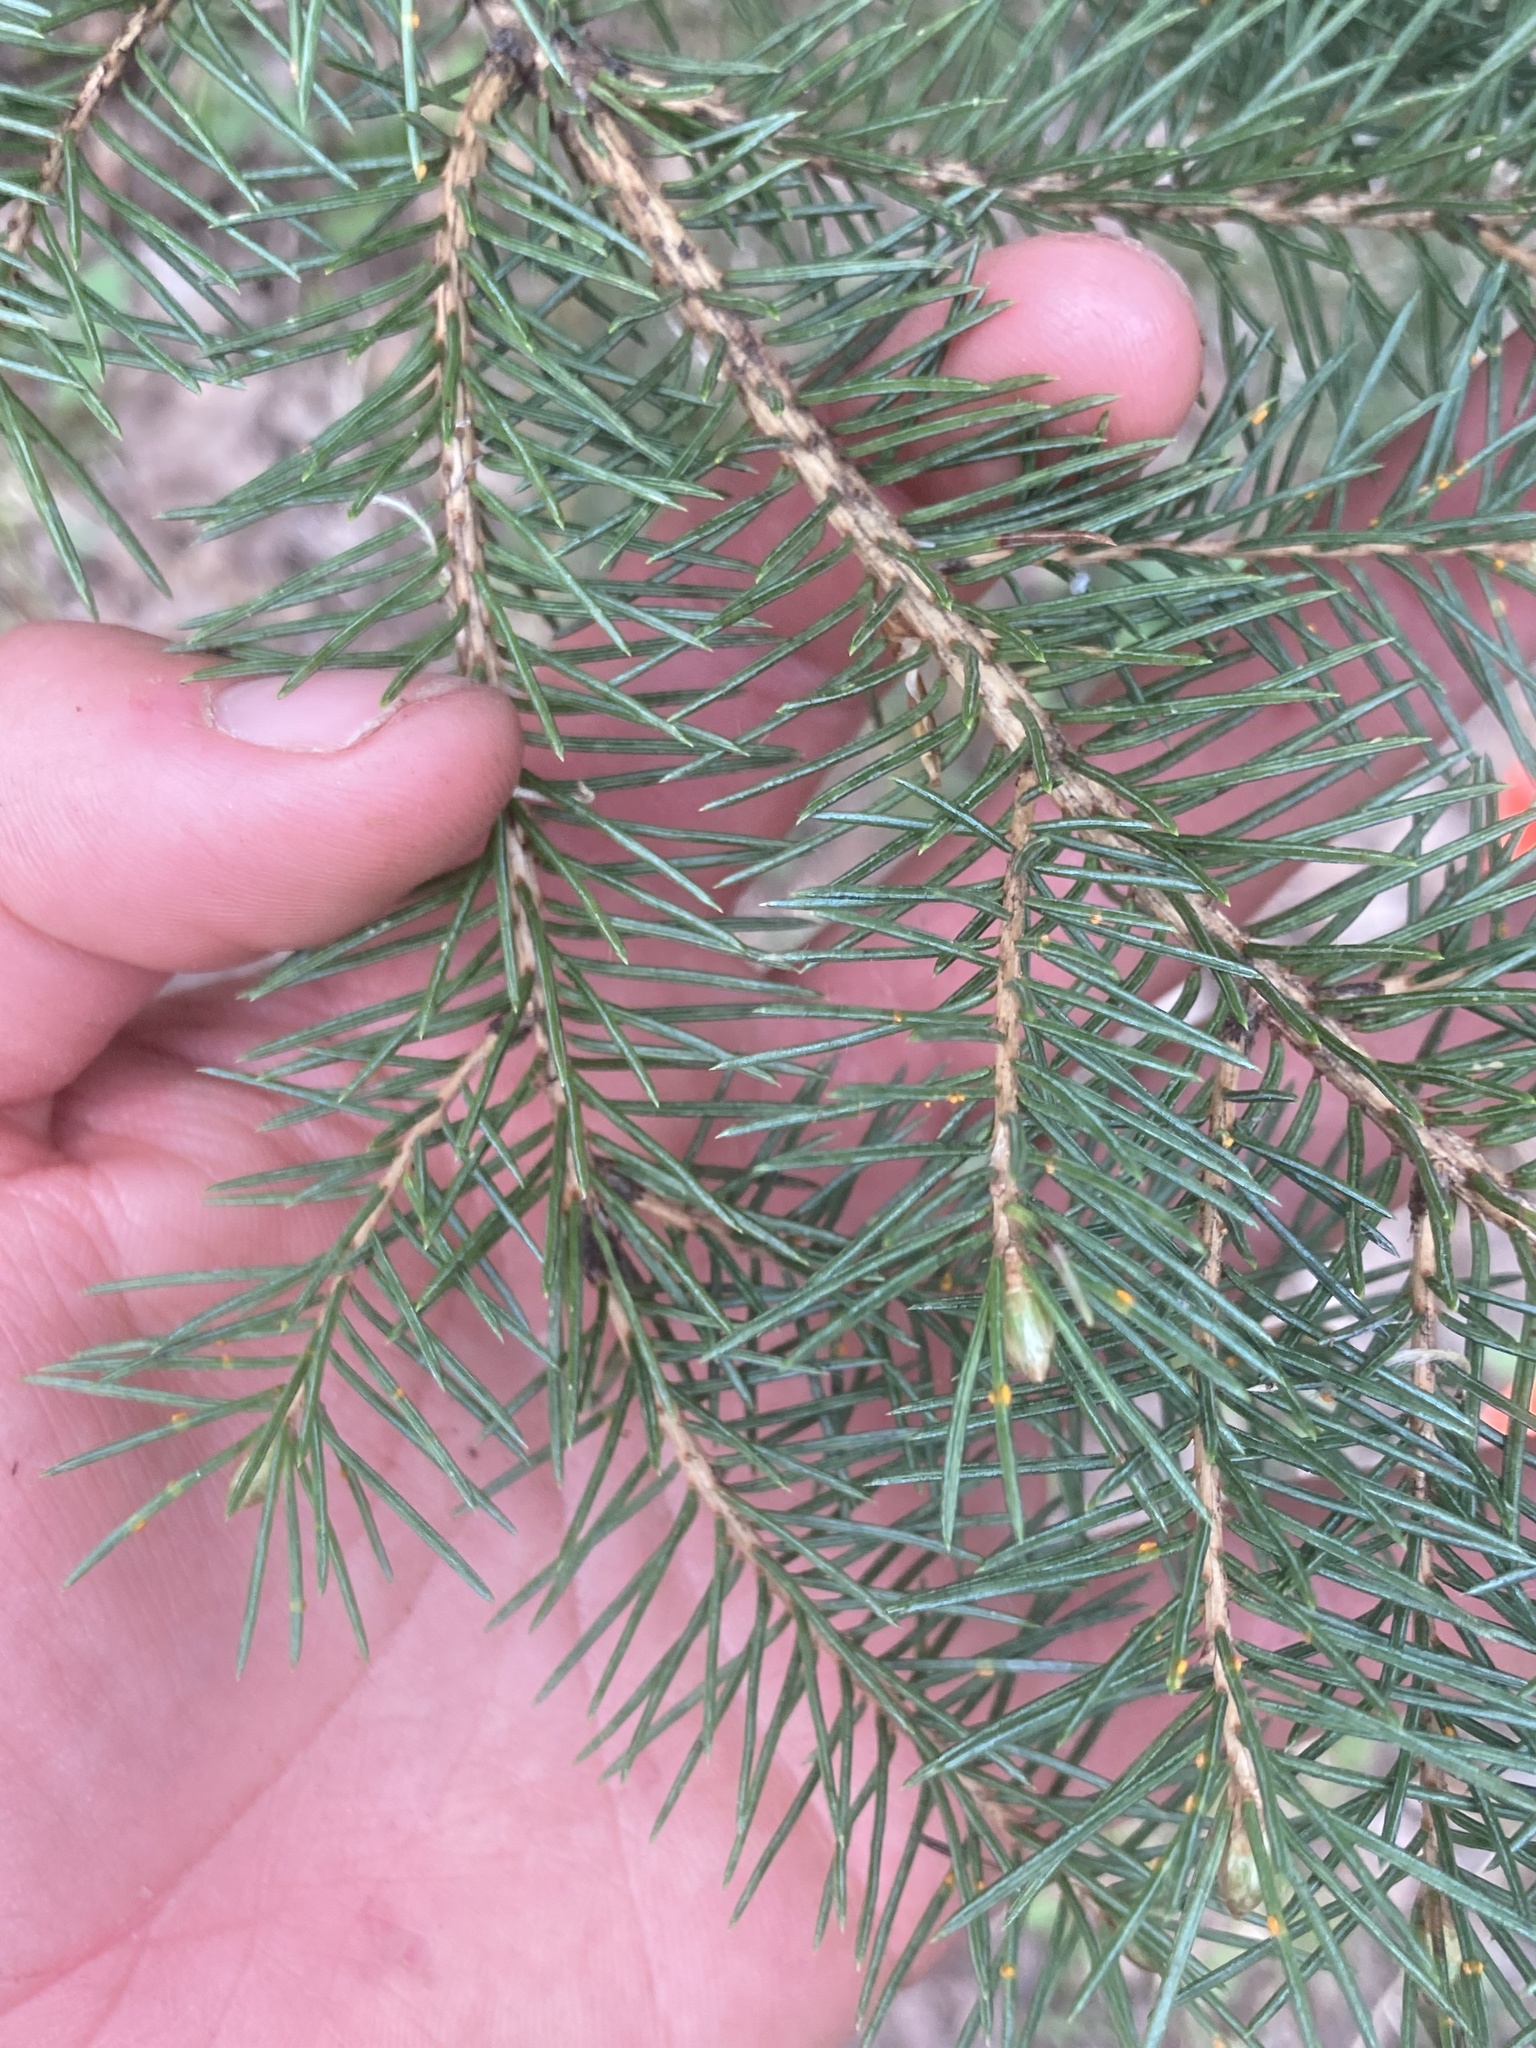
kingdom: Plantae
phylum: Tracheophyta
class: Pinopsida
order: Pinales
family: Pinaceae
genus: Abies
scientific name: Abies balsamea
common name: Balsam fir
